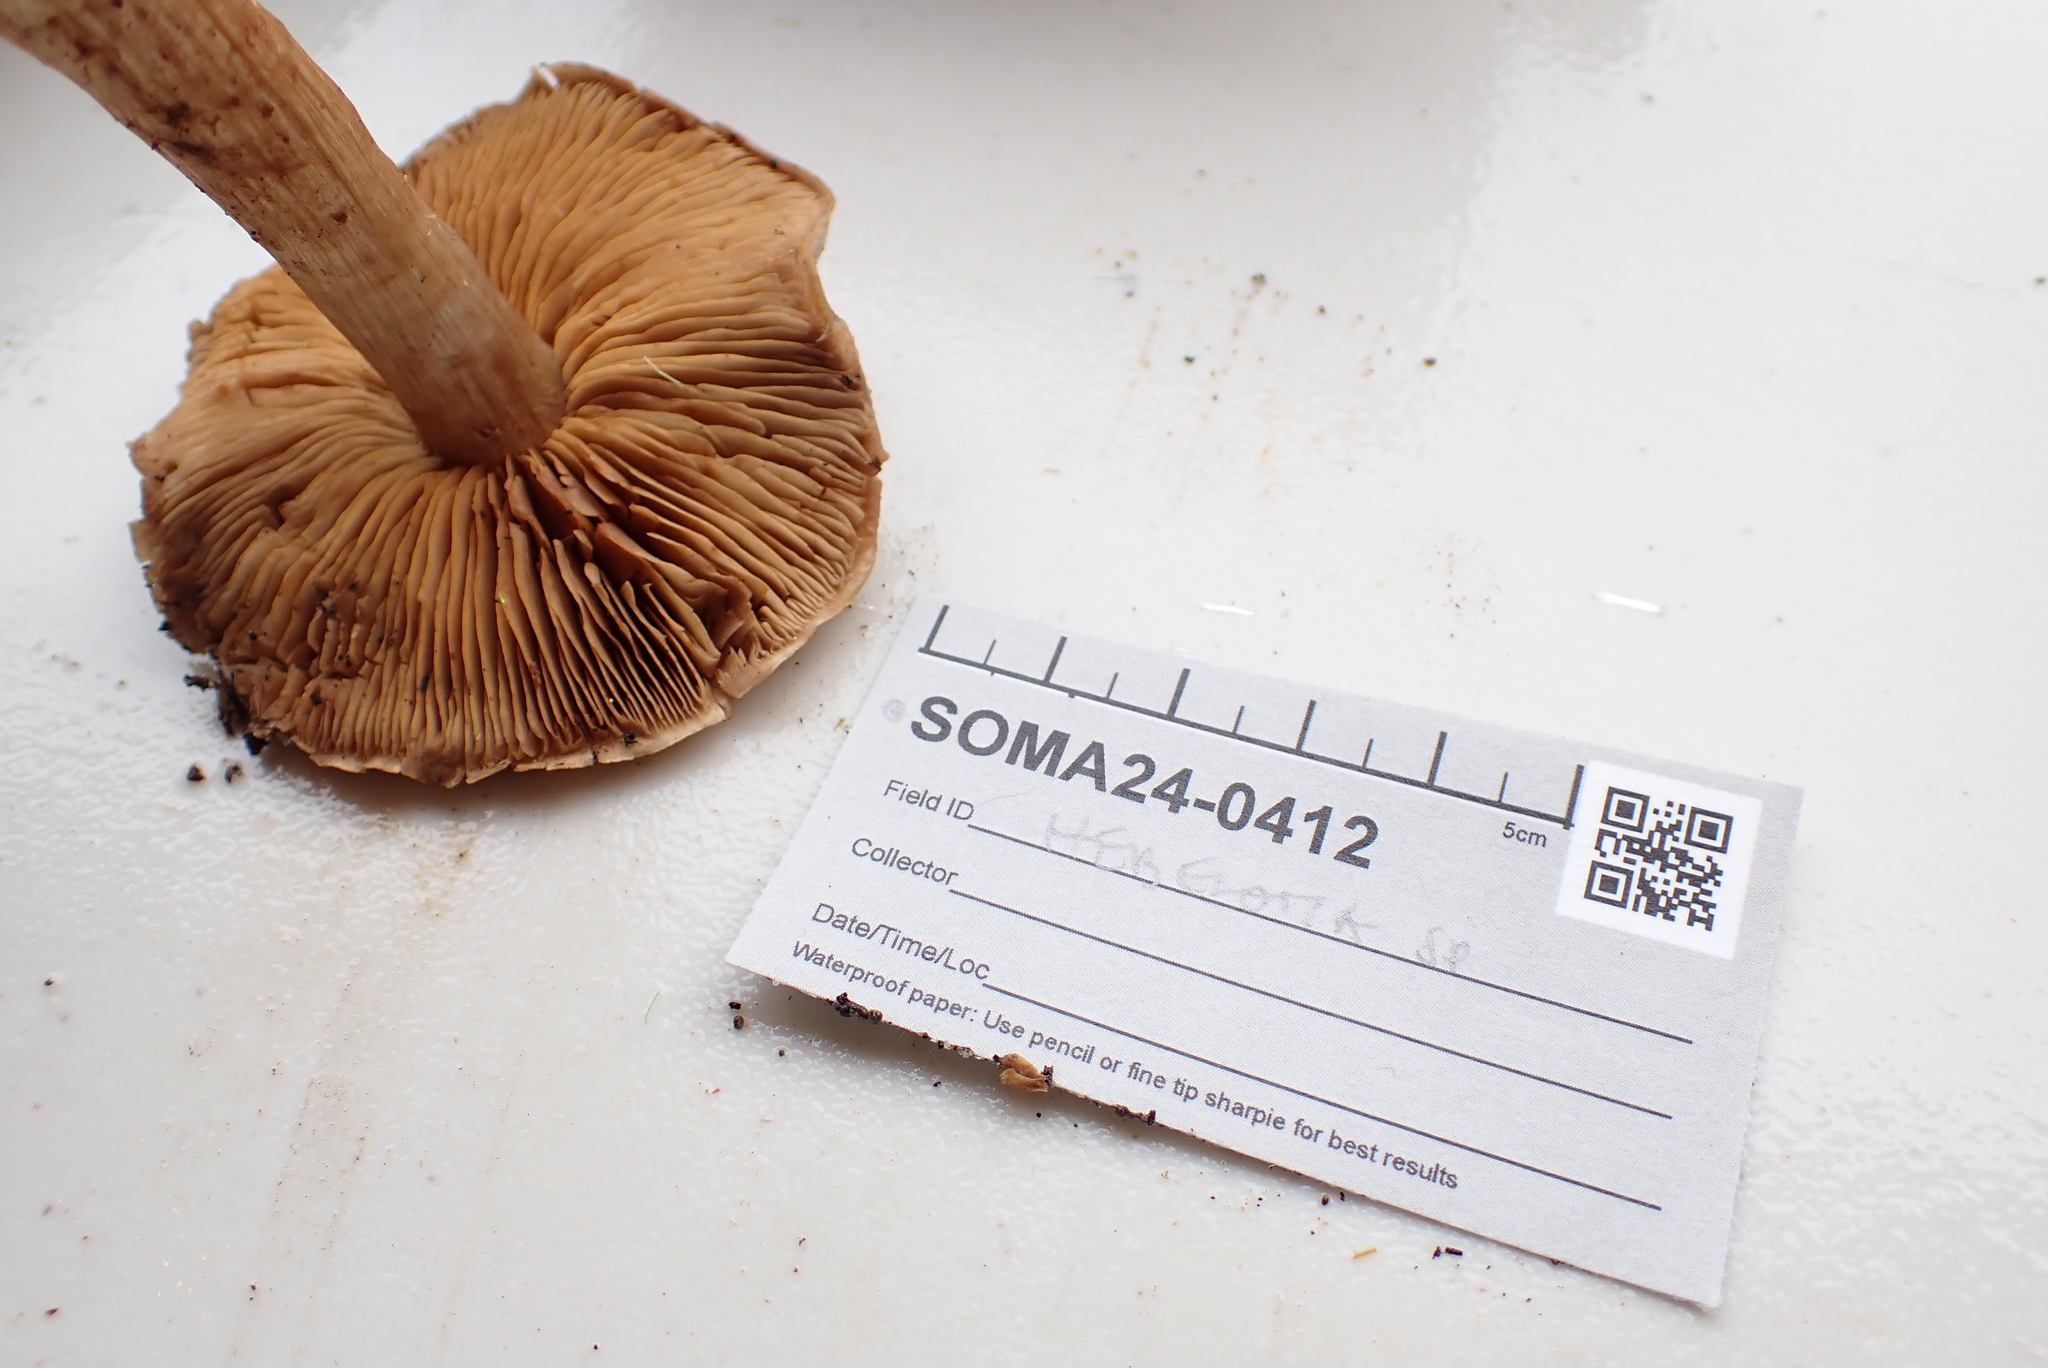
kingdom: Fungi
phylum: Basidiomycota
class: Agaricomycetes
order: Agaricales
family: Cortinariaceae
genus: Cortinarius
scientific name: Cortinarius anomalopacificus
